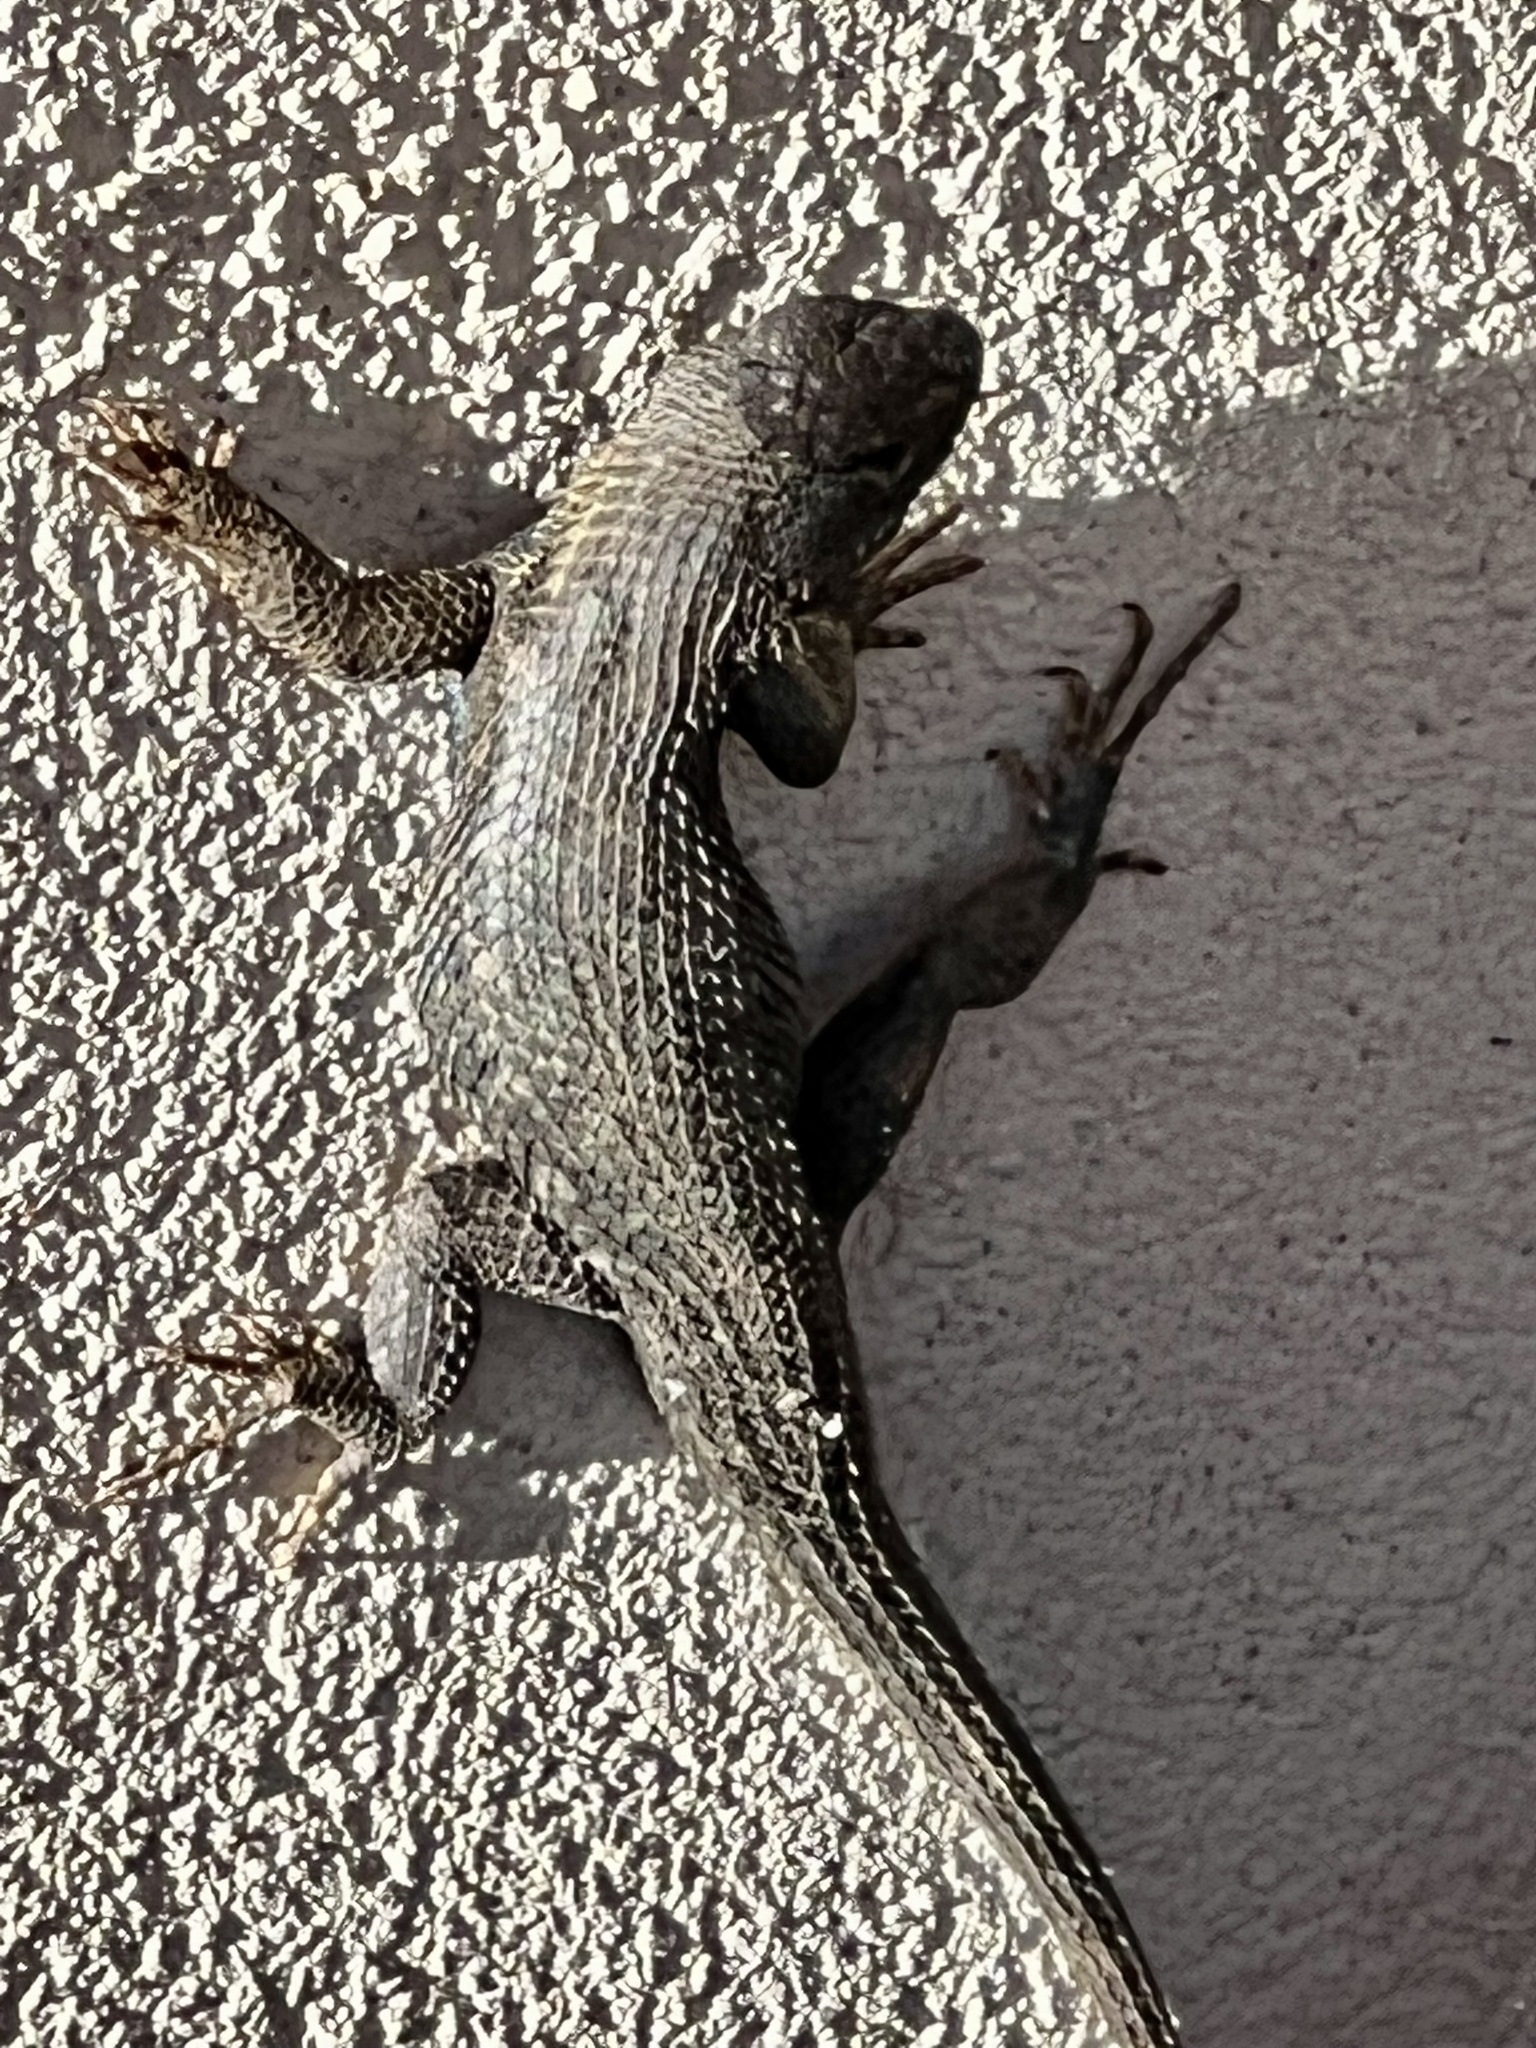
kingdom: Animalia
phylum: Chordata
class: Squamata
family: Phrynosomatidae
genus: Sceloporus
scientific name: Sceloporus occidentalis
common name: Western fence lizard
